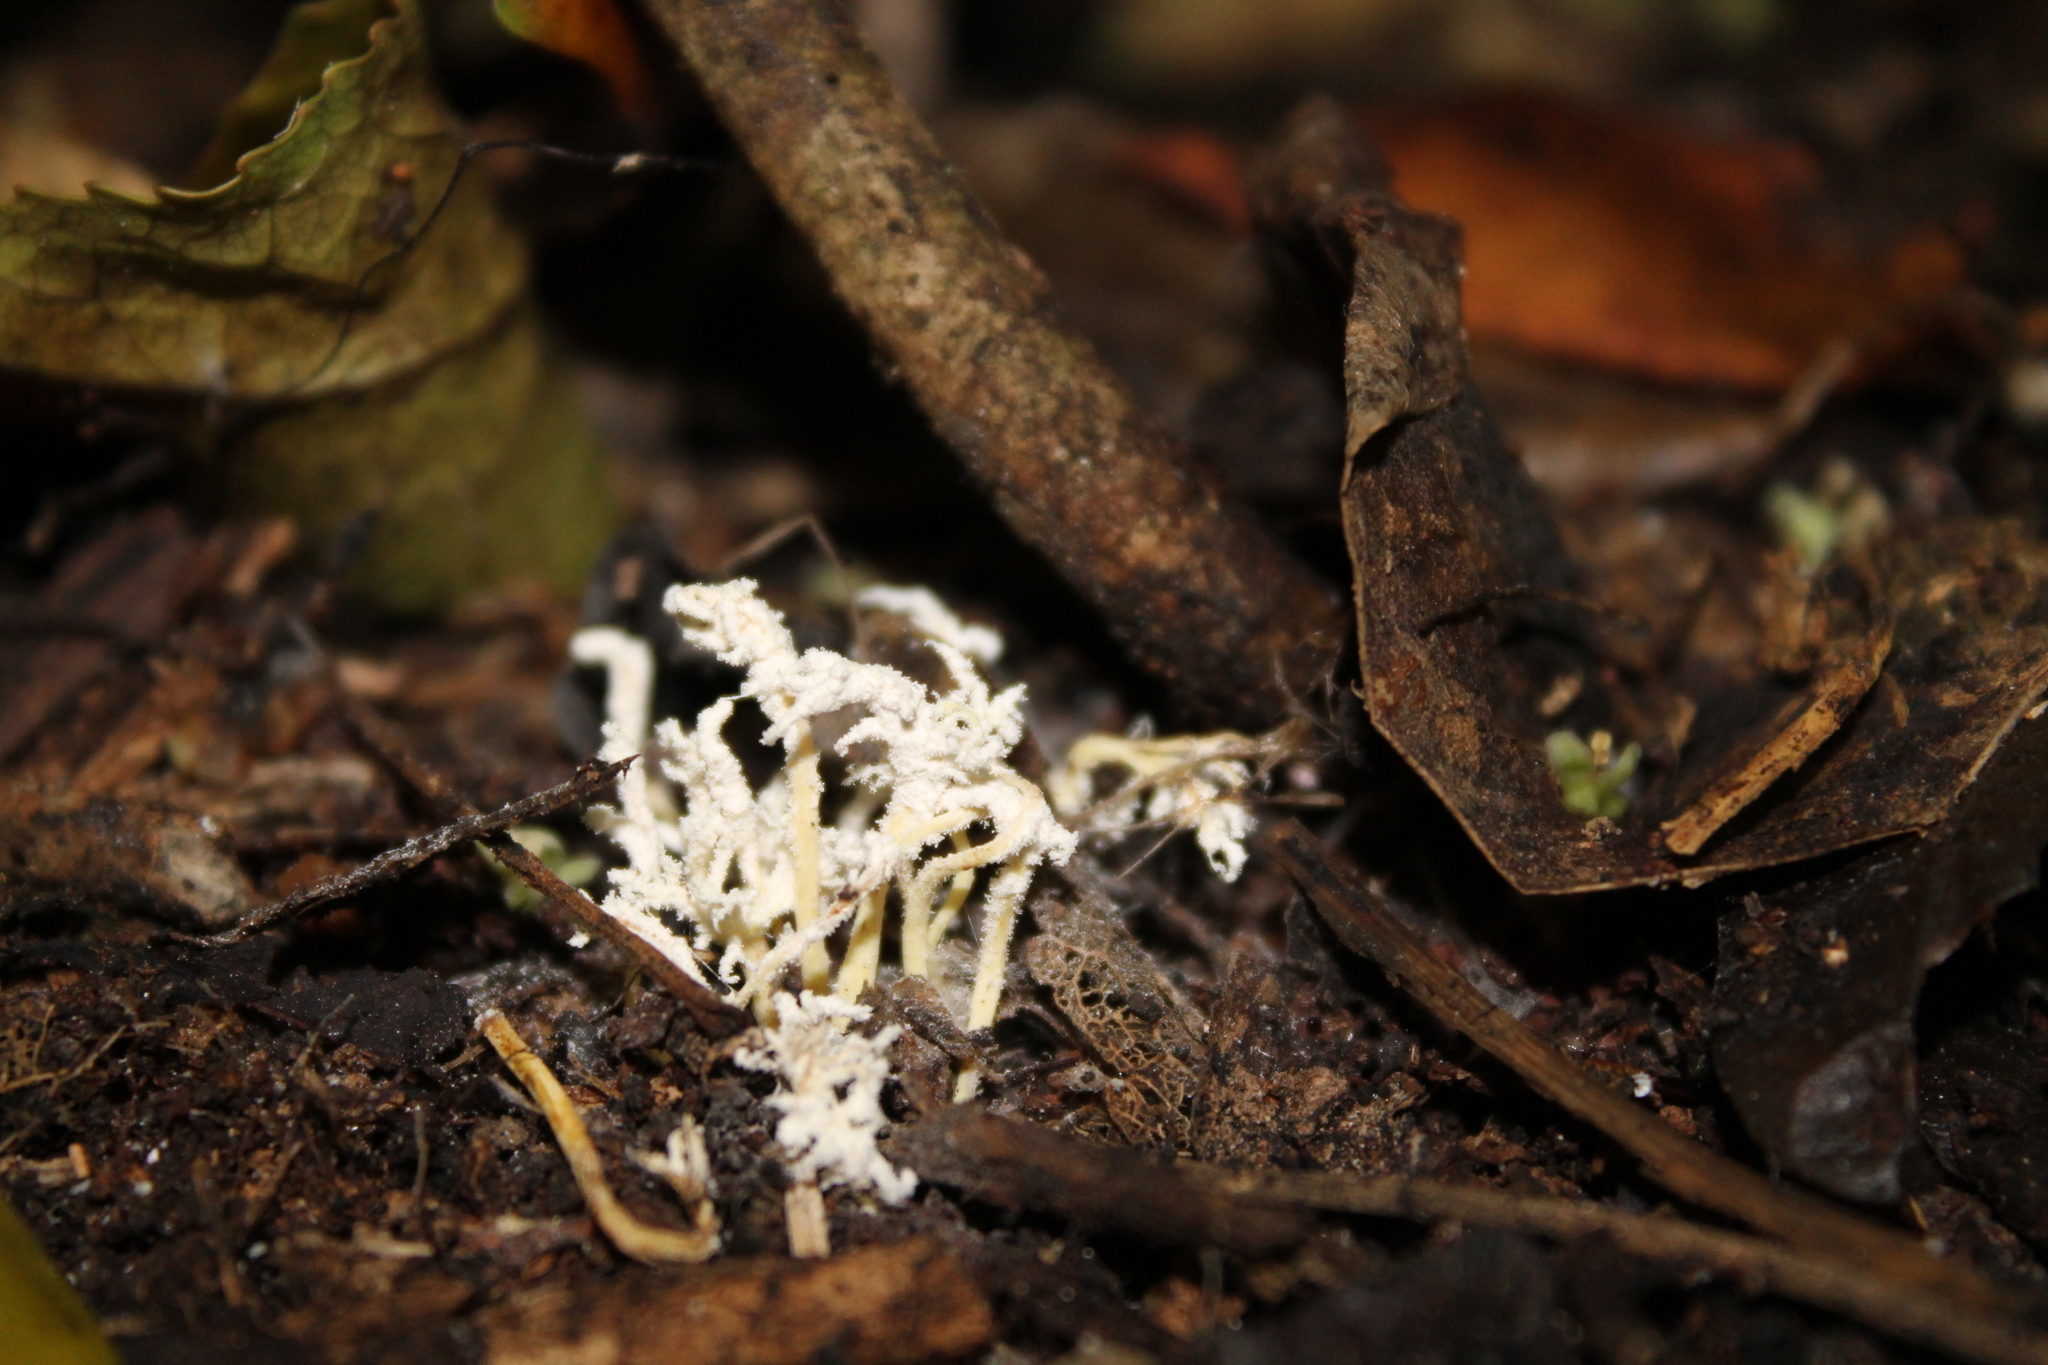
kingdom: Fungi
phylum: Ascomycota
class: Sordariomycetes
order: Hypocreales
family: Cordycipitaceae
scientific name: Cordycipitaceae
